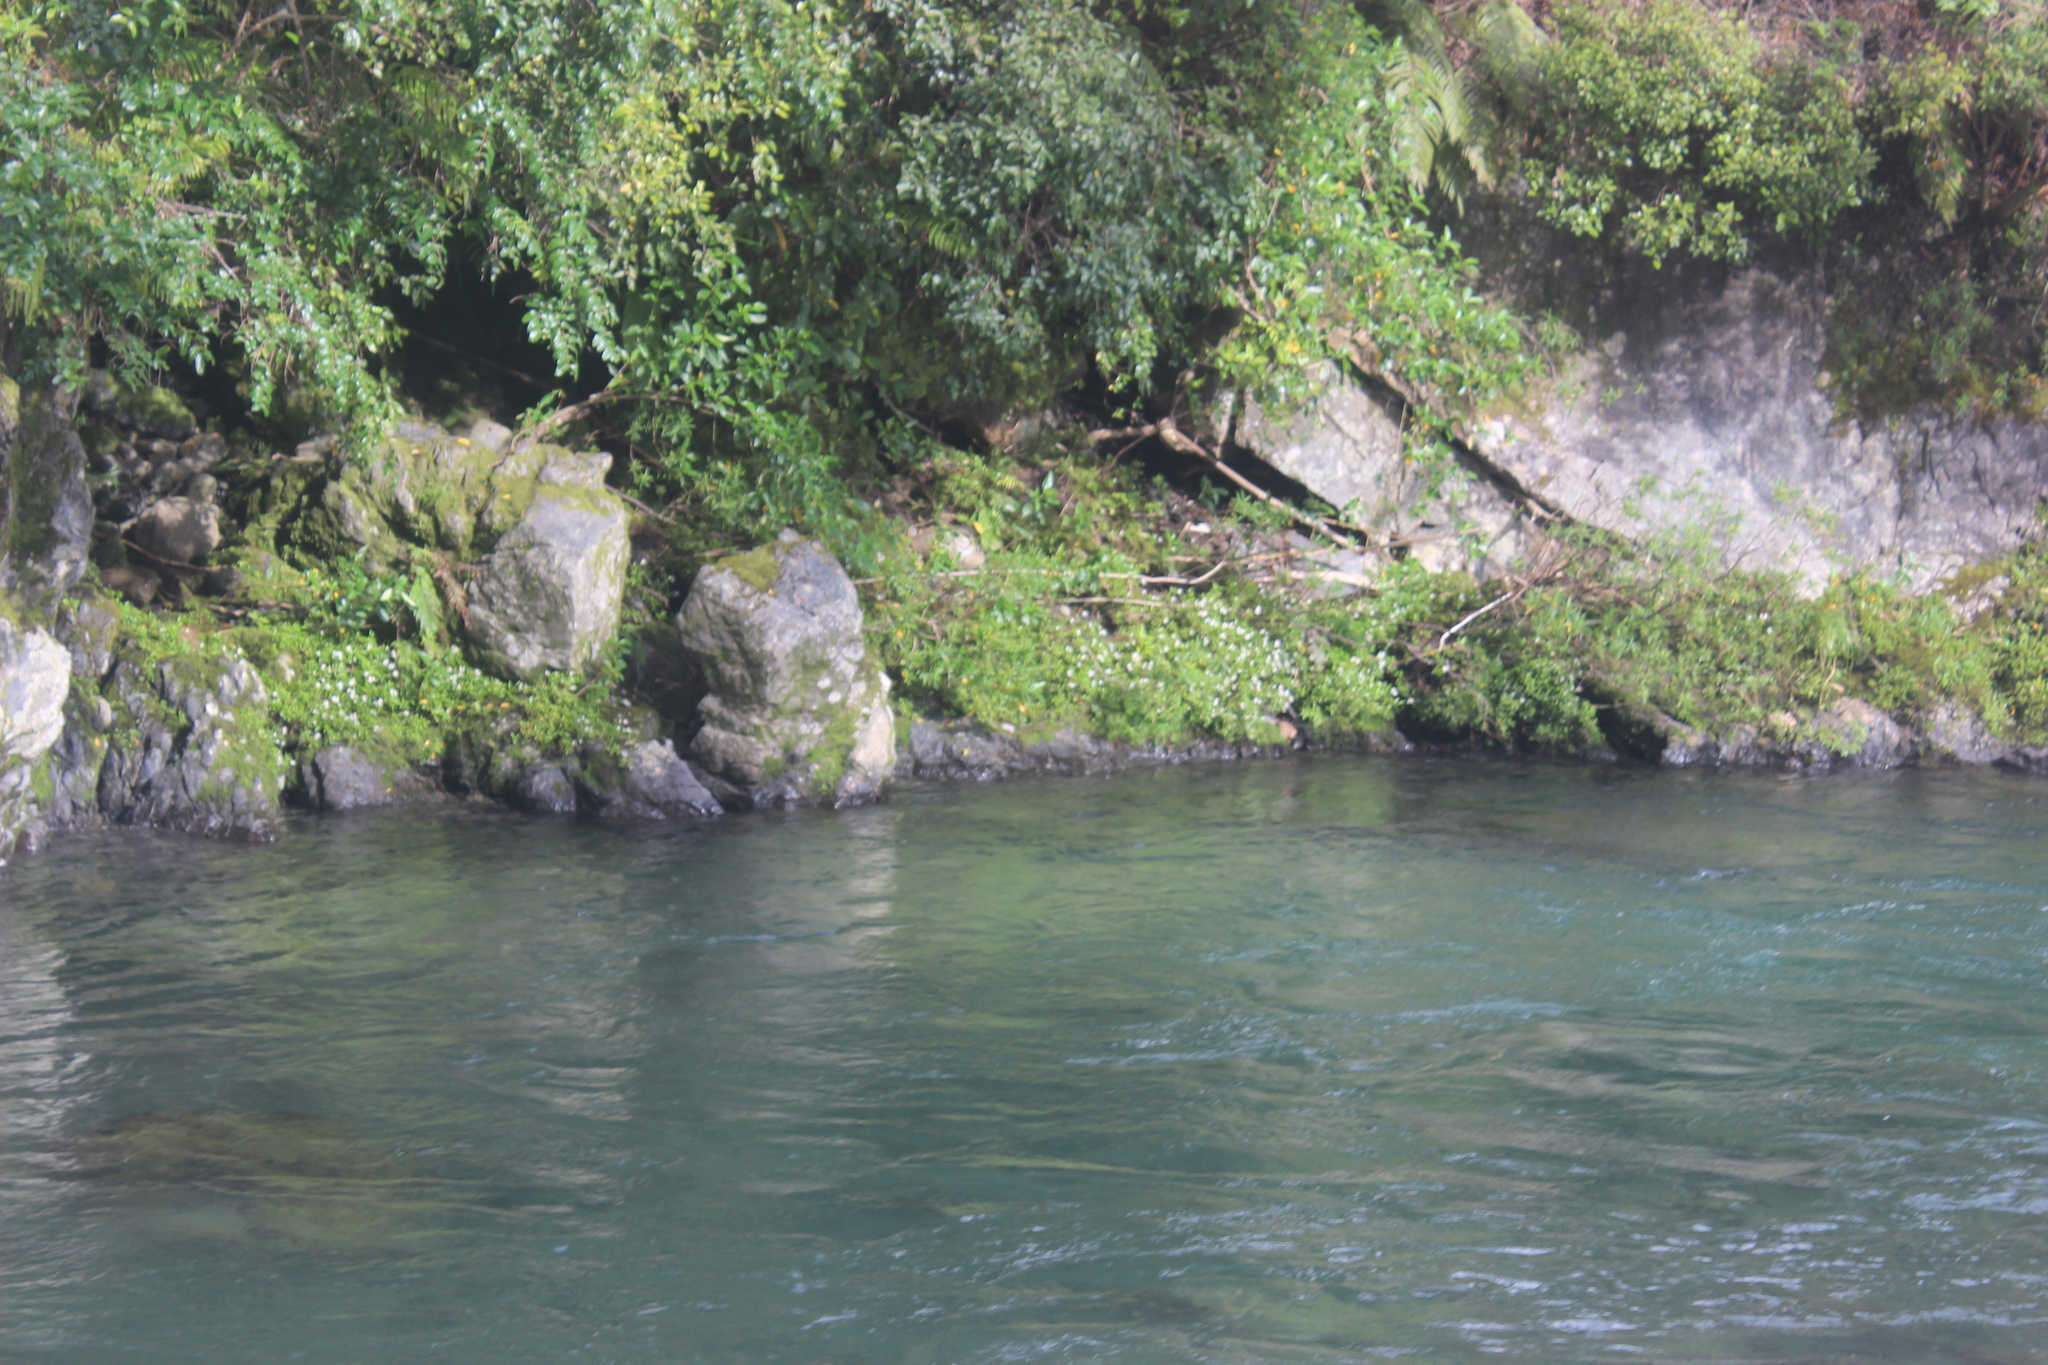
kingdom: Plantae
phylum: Tracheophyta
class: Magnoliopsida
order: Asterales
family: Asteraceae
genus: Anaphalioides
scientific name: Anaphalioides trinervis
